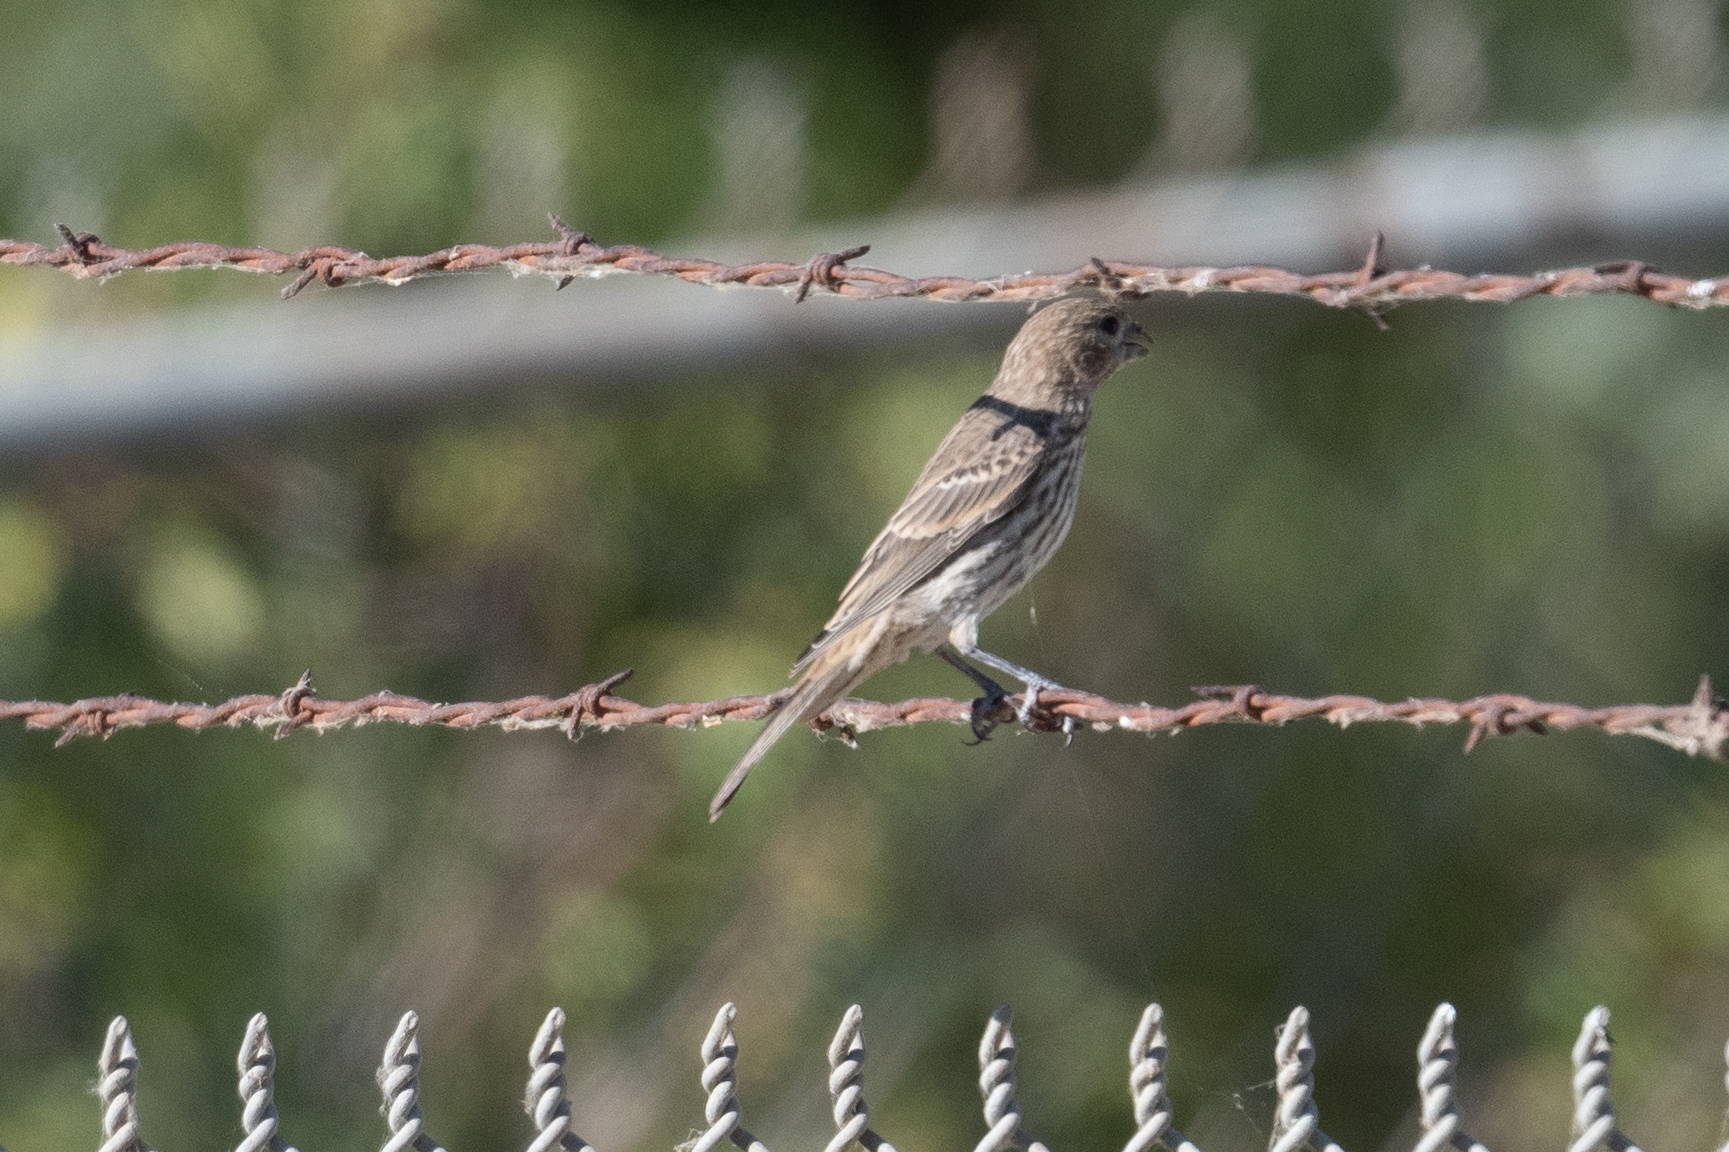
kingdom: Animalia
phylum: Chordata
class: Aves
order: Passeriformes
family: Fringillidae
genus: Haemorhous
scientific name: Haemorhous mexicanus
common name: House finch
